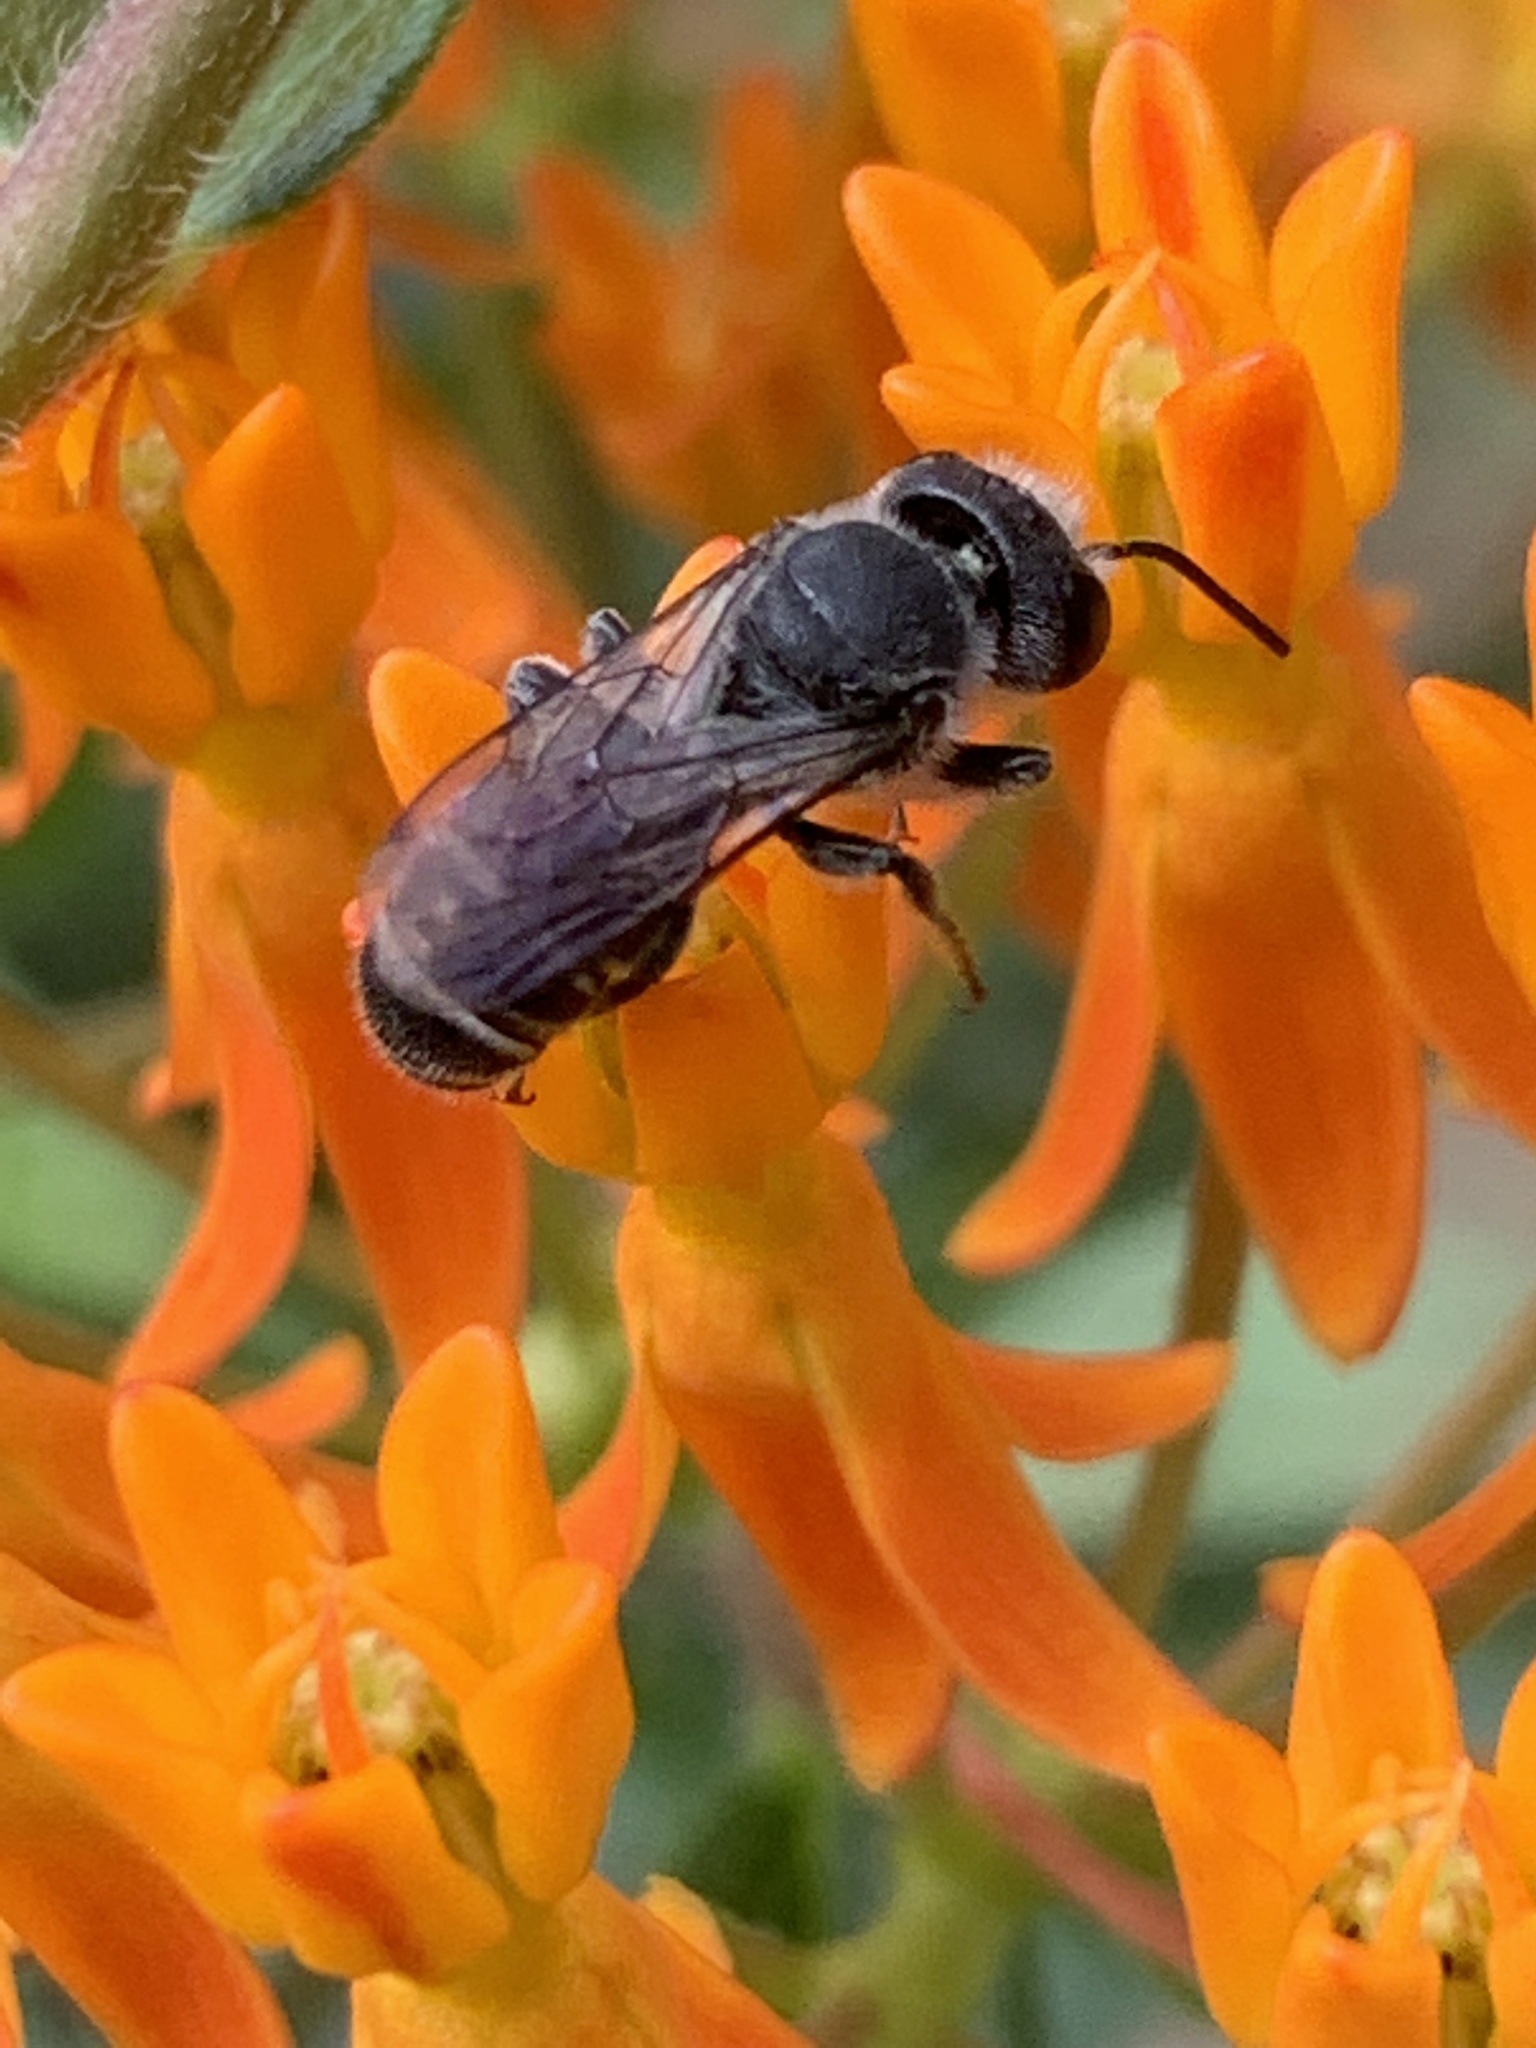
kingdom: Animalia
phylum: Arthropoda
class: Insecta
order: Hymenoptera
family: Megachilidae
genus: Megachile
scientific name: Megachile campanulae
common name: Bellflower resin bee
